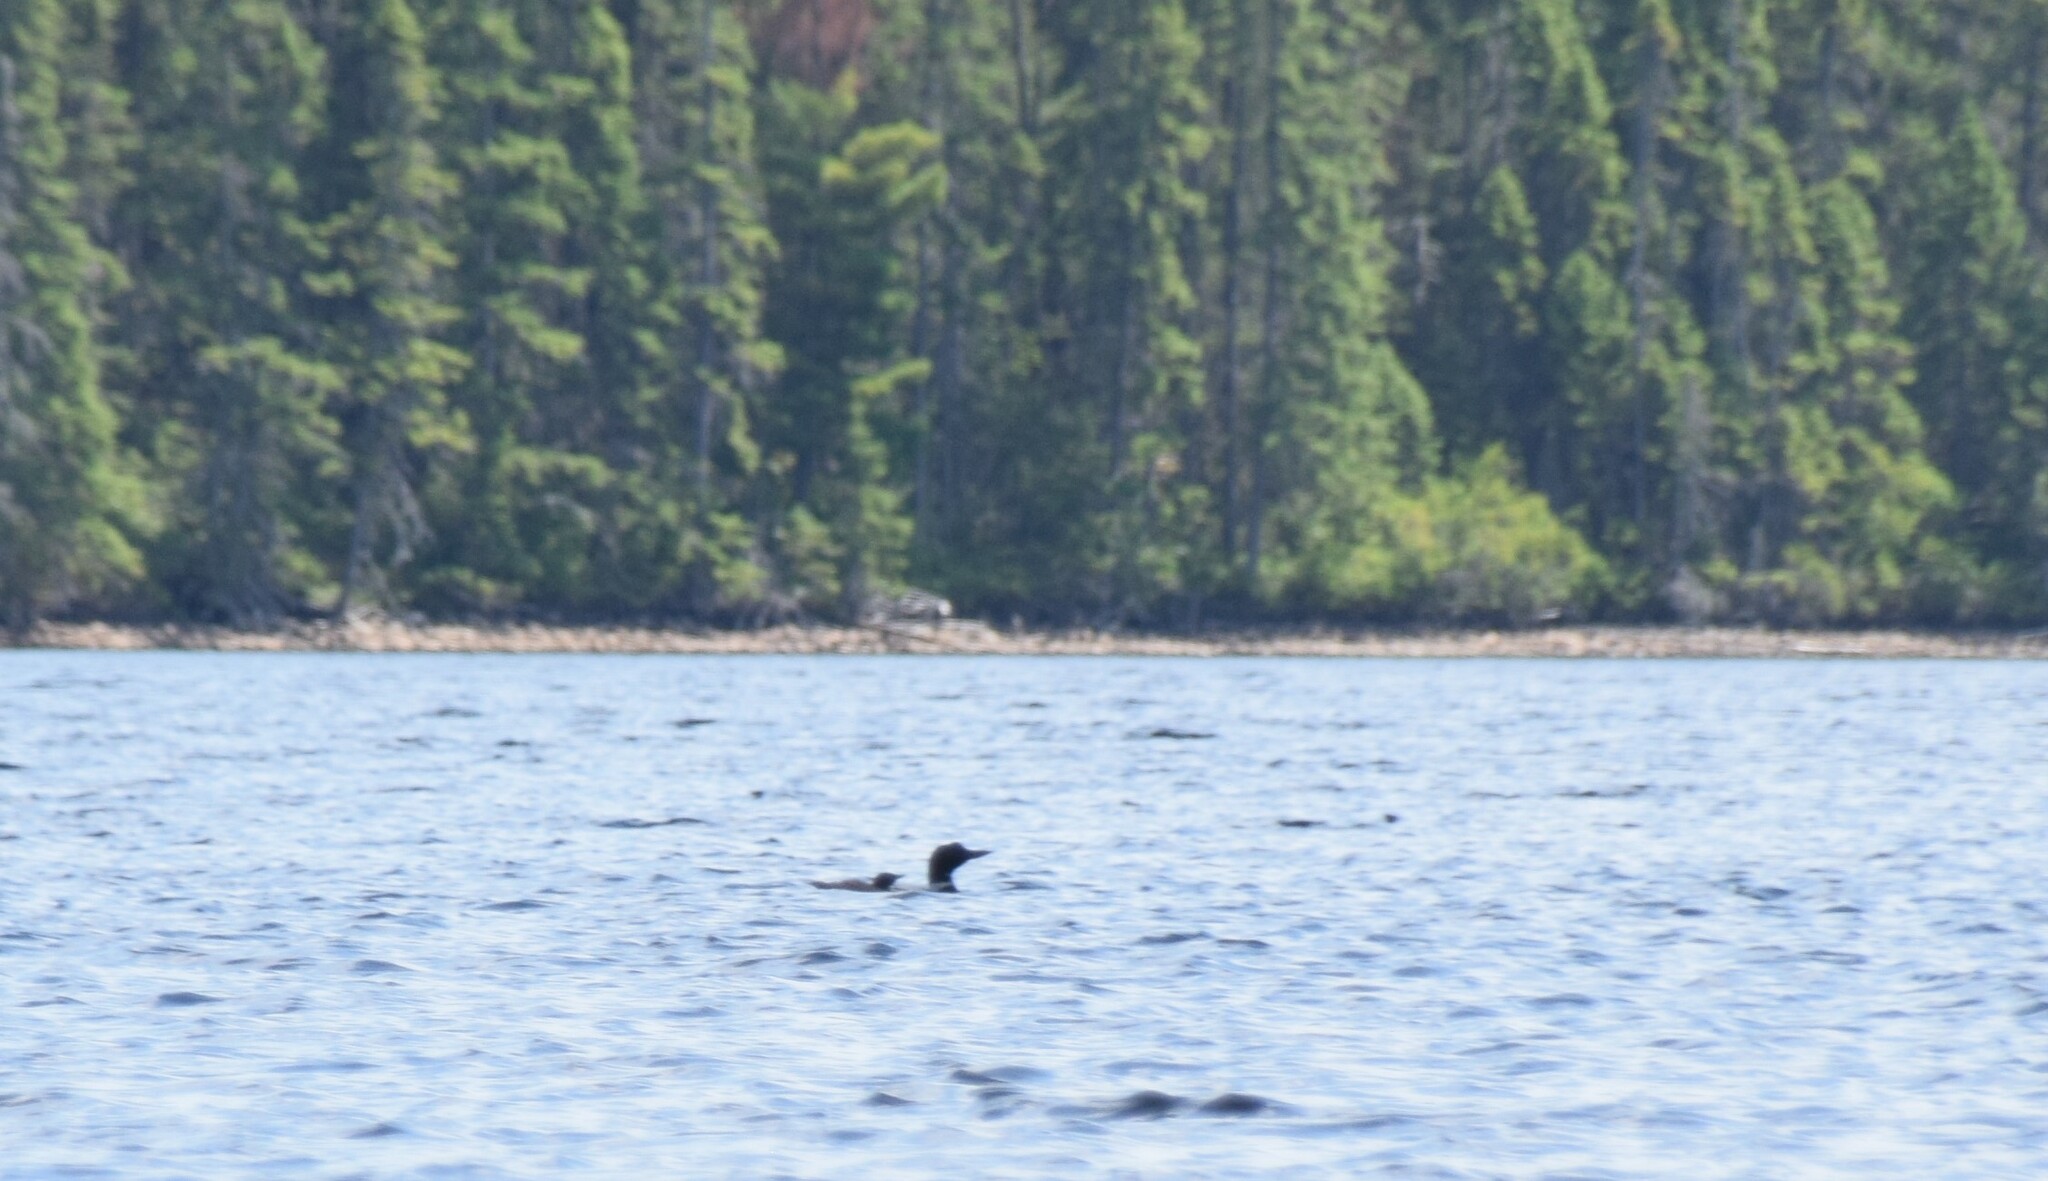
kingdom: Animalia
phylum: Chordata
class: Aves
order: Gaviiformes
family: Gaviidae
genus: Gavia
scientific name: Gavia immer
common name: Common loon
